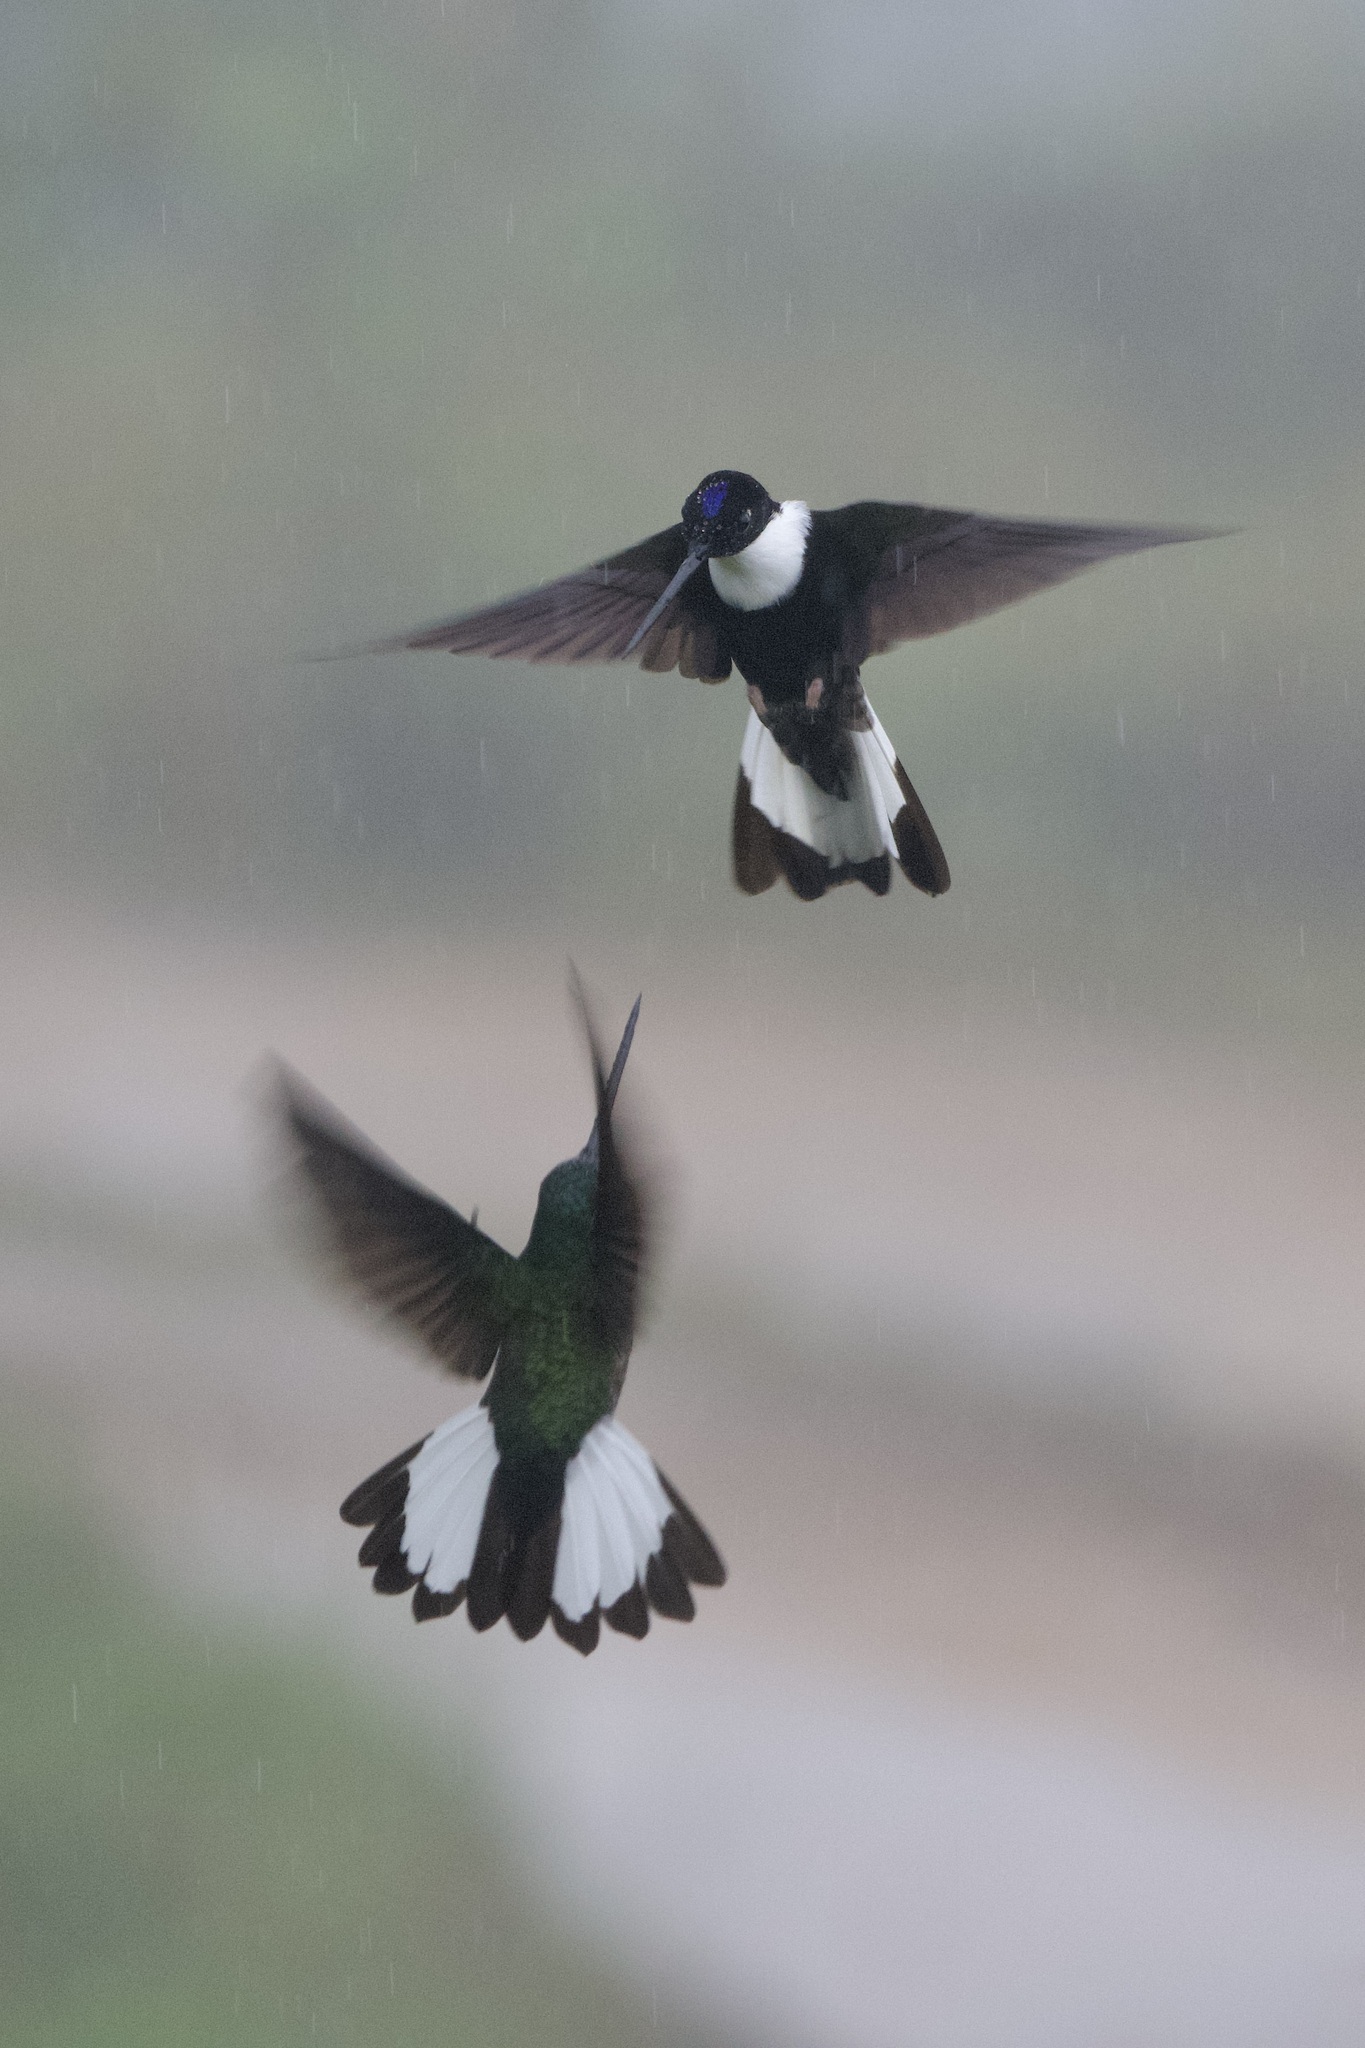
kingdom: Animalia
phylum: Chordata
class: Aves
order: Apodiformes
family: Trochilidae
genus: Coeligena
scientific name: Coeligena torquata
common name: Collared inca
